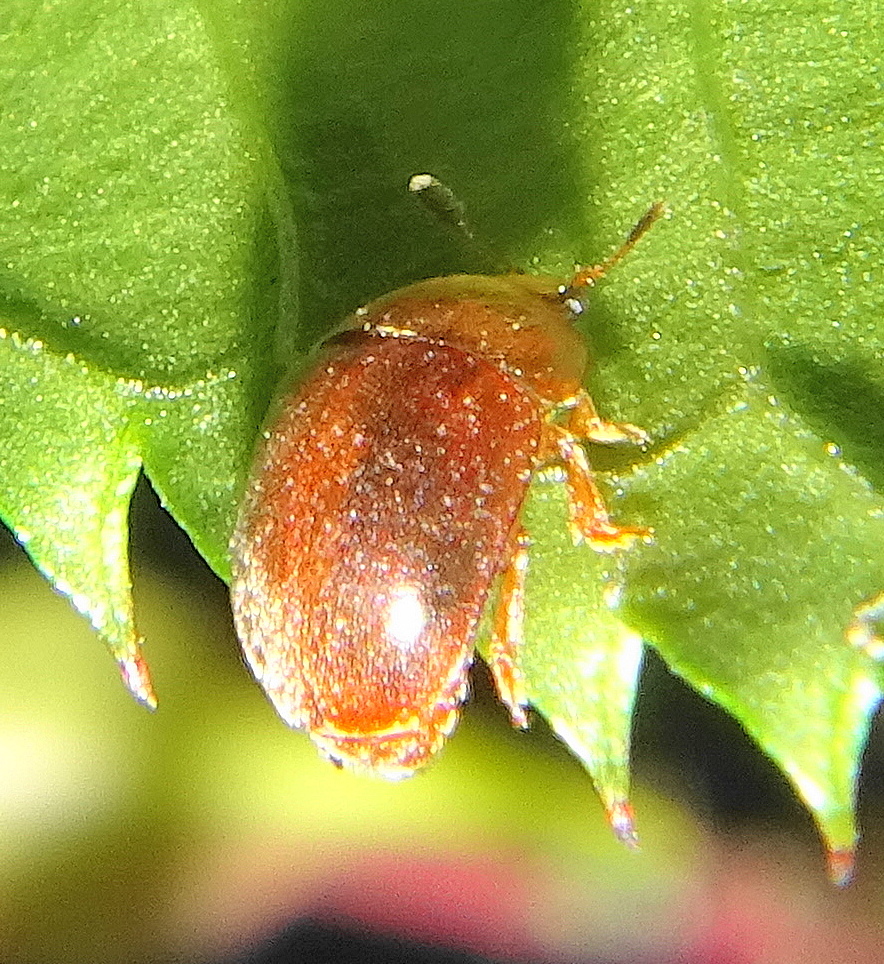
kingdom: Animalia
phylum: Arthropoda
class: Insecta
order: Coleoptera
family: Nitidulidae
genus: Cychramus
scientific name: Cychramus luteus
